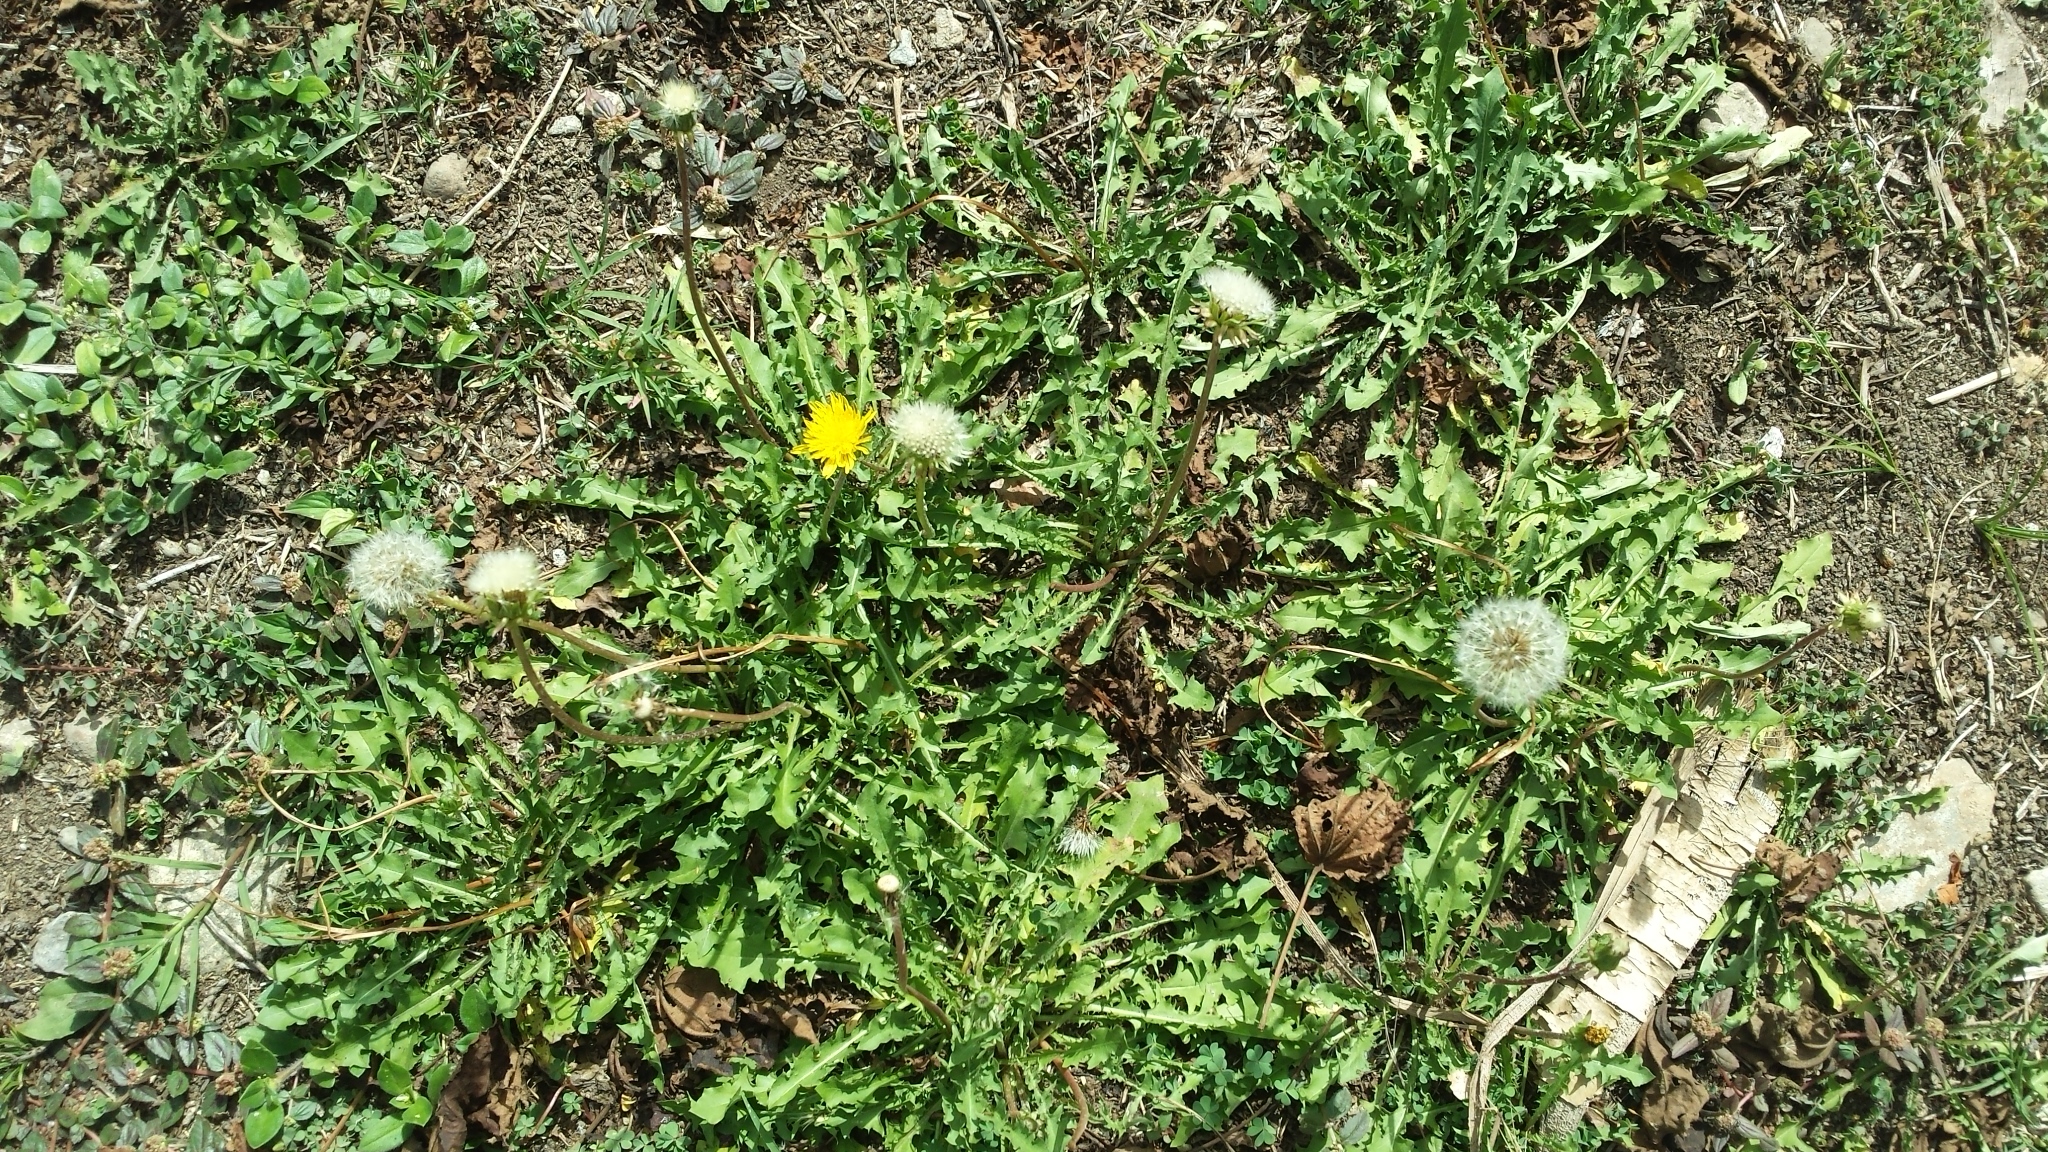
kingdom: Plantae
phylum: Tracheophyta
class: Magnoliopsida
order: Asterales
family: Asteraceae
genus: Taraxacum
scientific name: Taraxacum officinale
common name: Common dandelion
